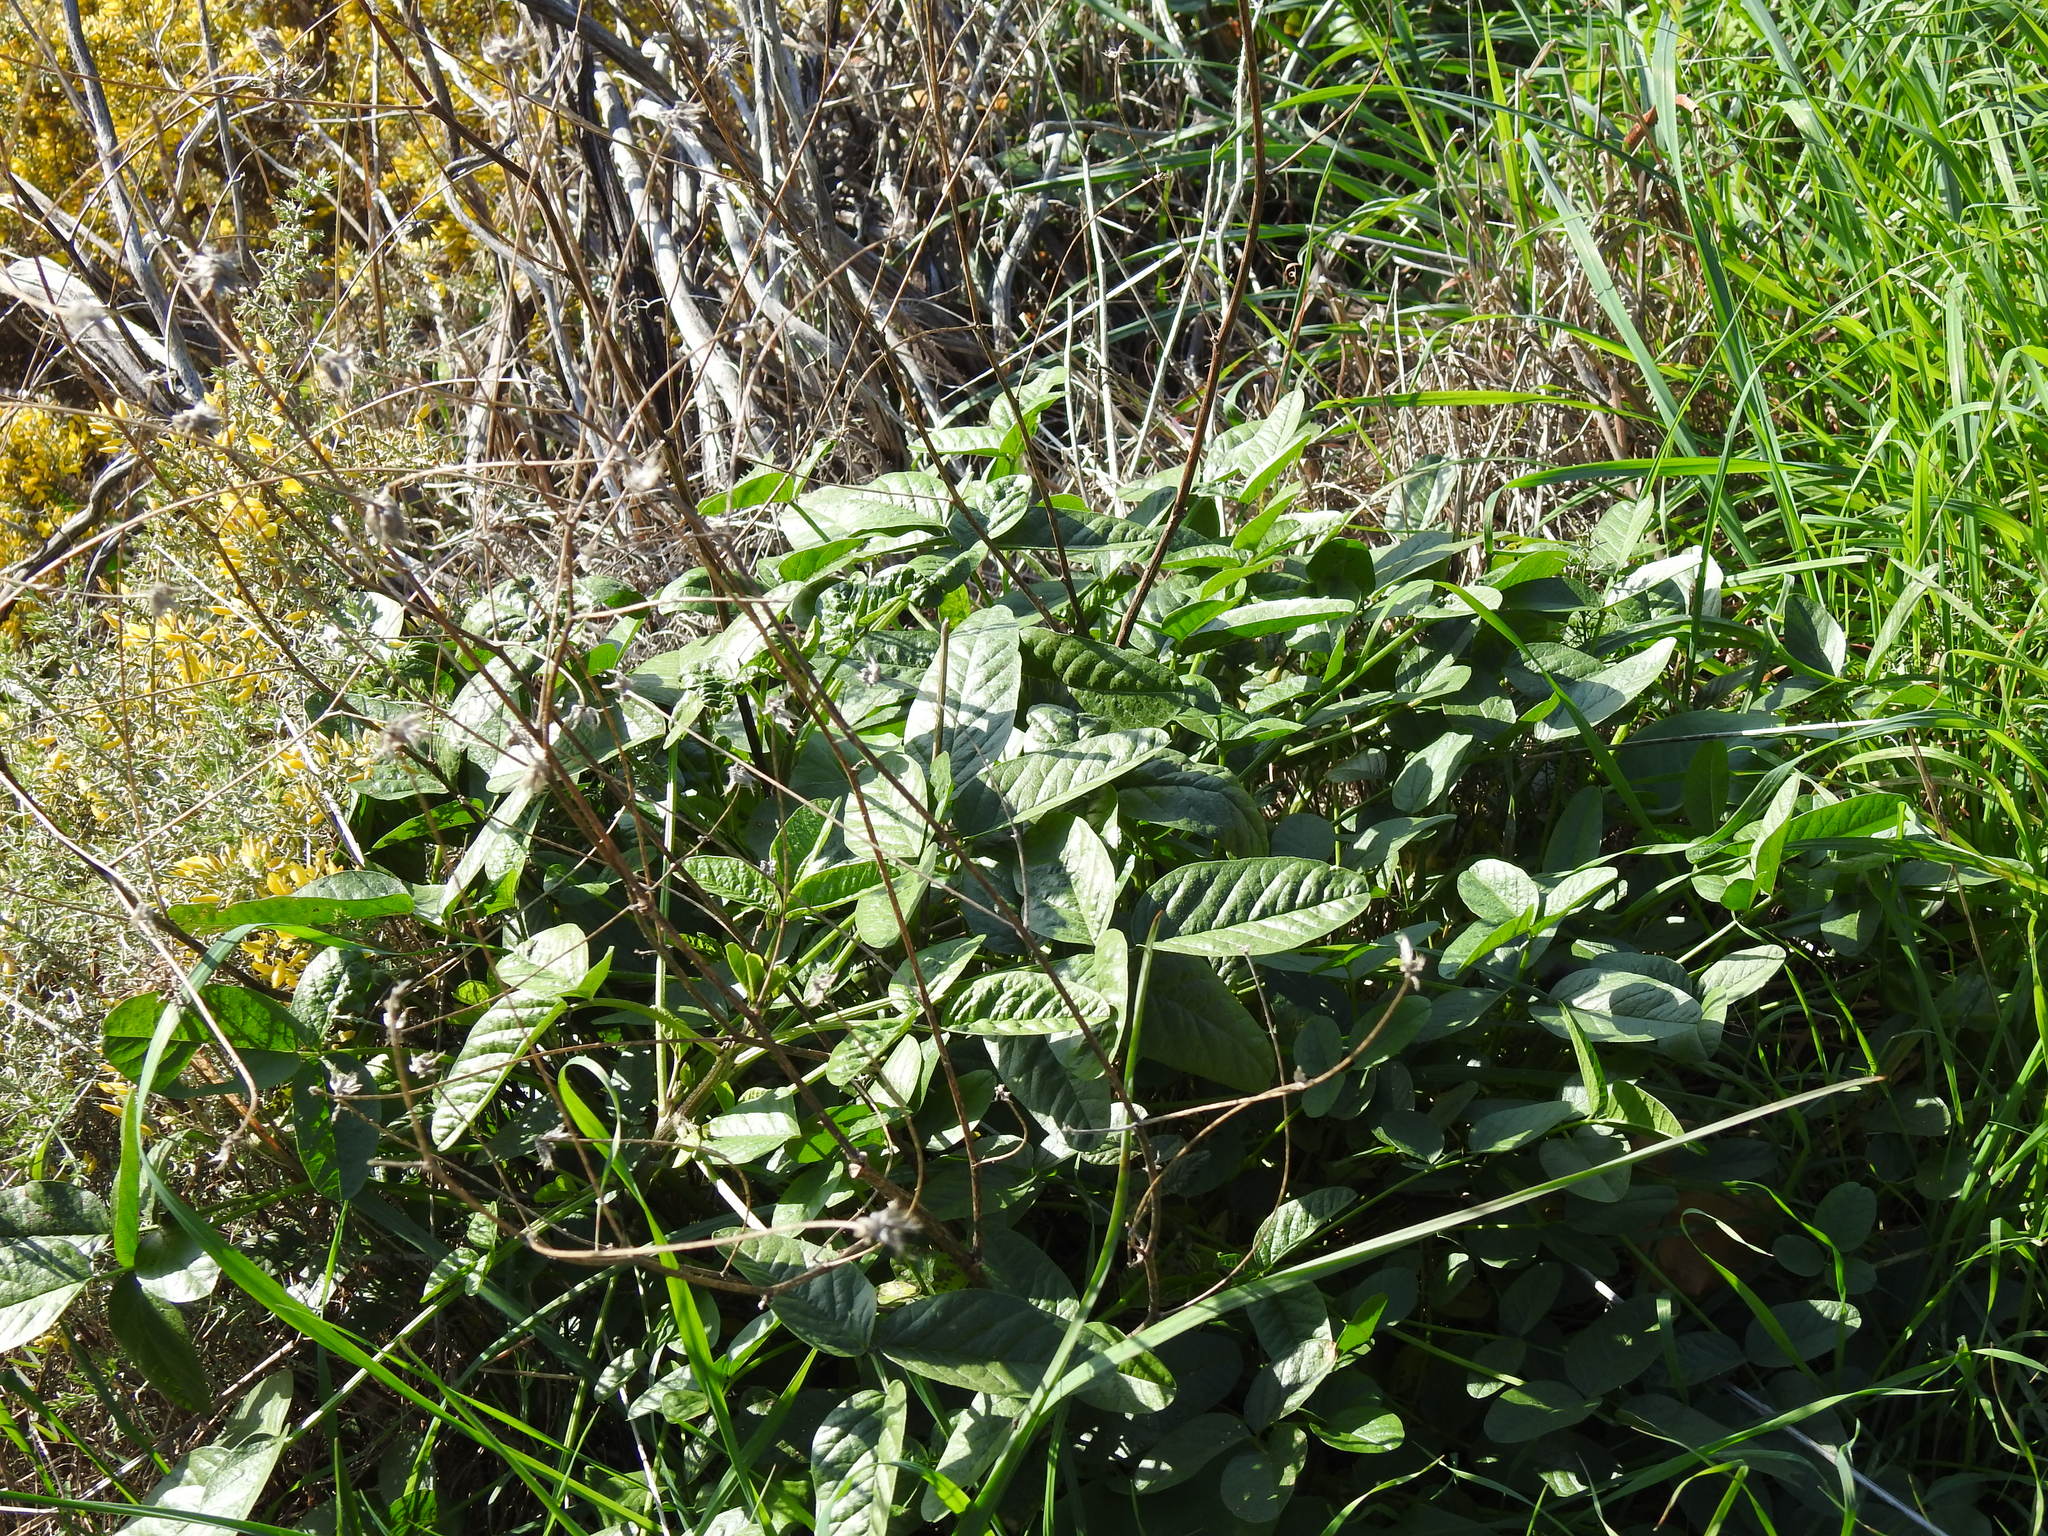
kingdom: Plantae
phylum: Tracheophyta
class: Magnoliopsida
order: Fabales
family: Fabaceae
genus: Bituminaria
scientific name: Bituminaria bituminosa
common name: Arabian pea
